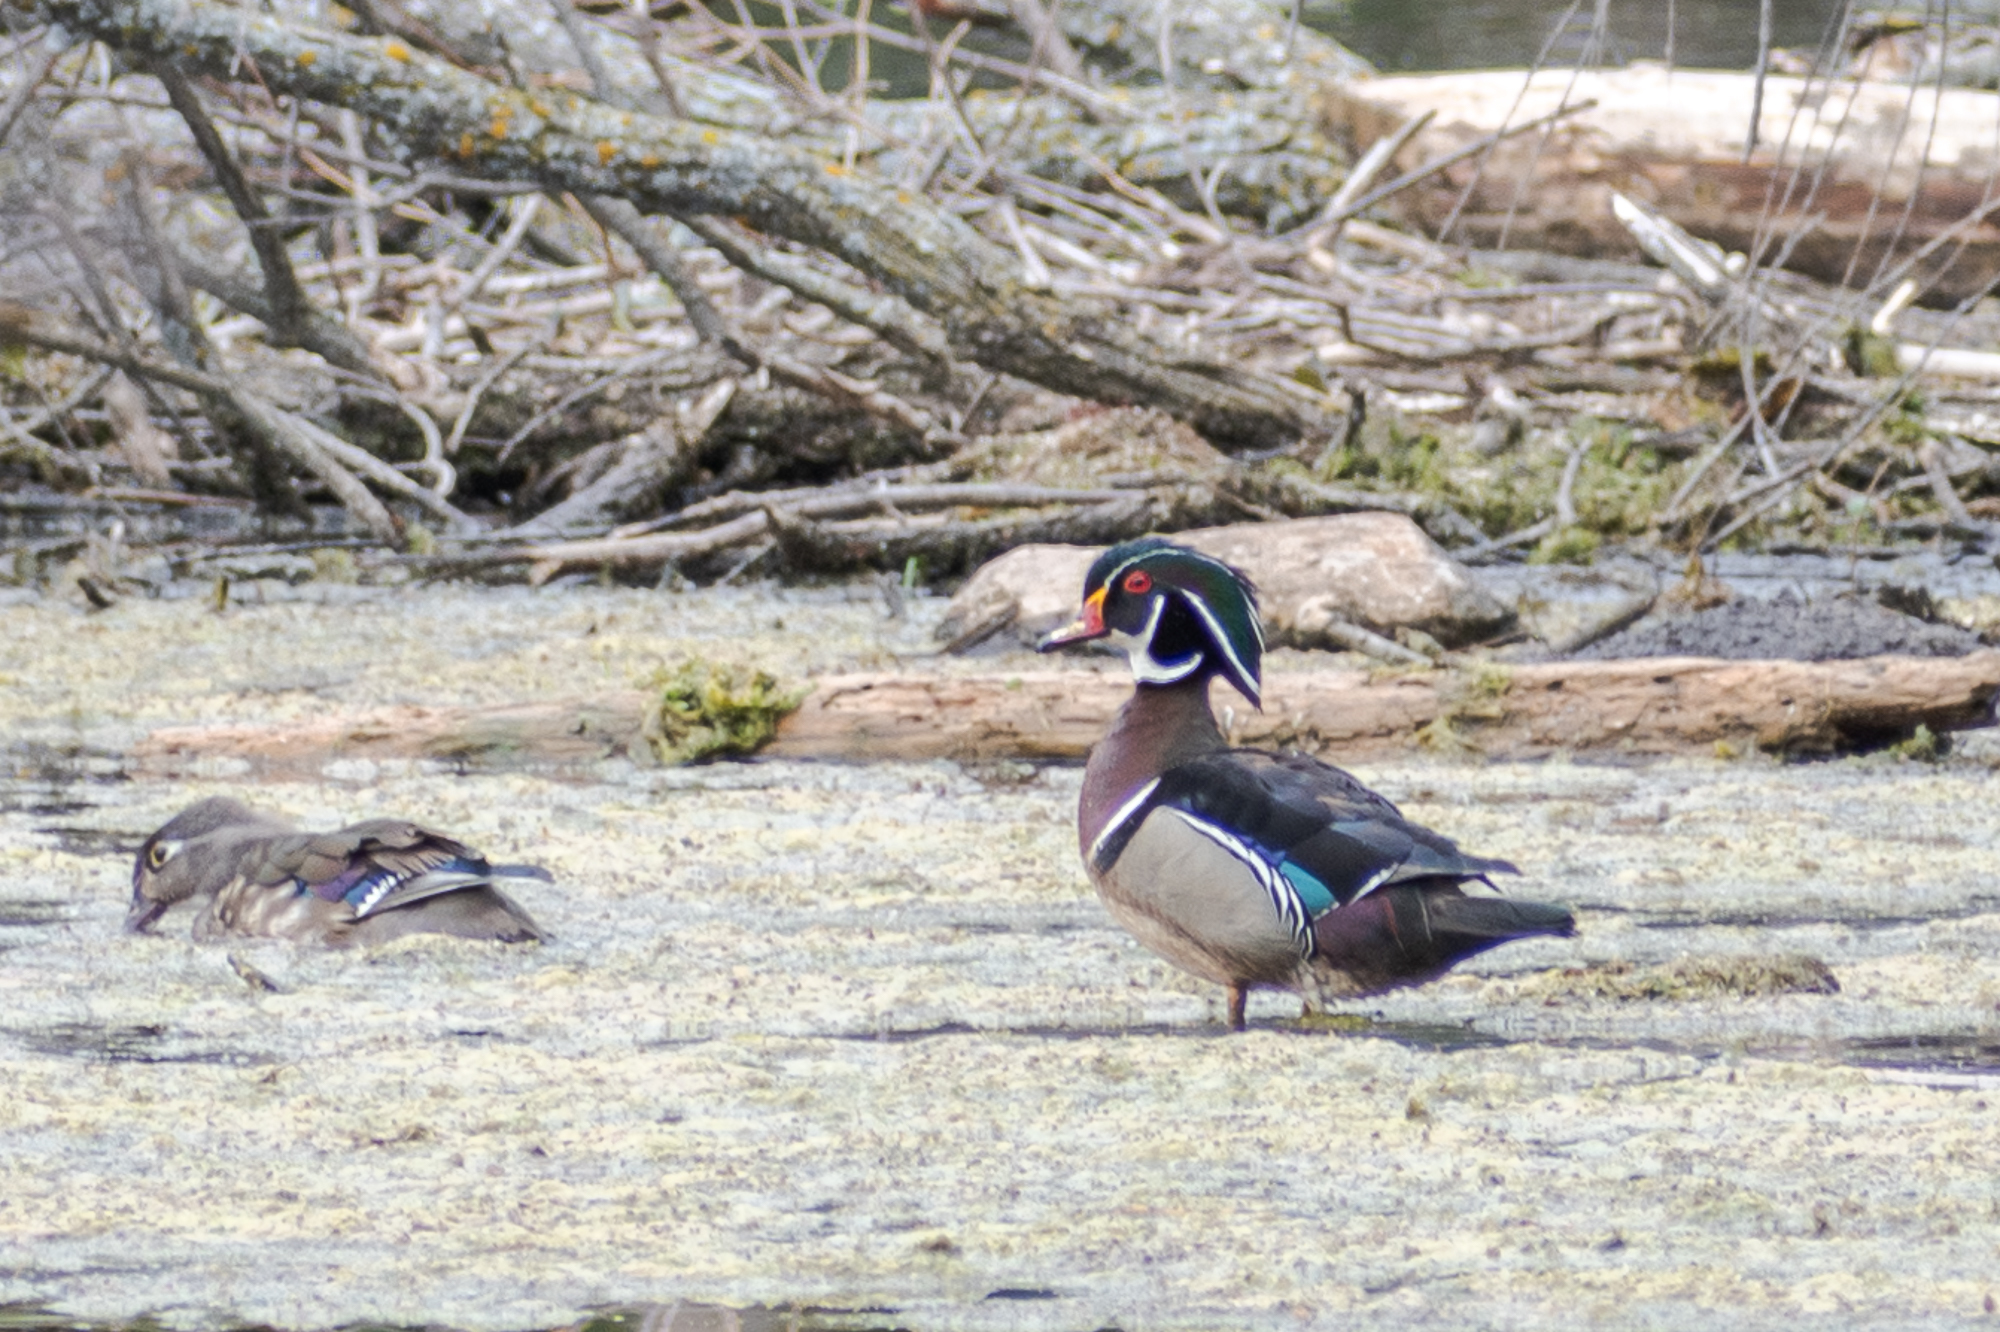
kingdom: Animalia
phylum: Chordata
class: Aves
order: Anseriformes
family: Anatidae
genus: Aix
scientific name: Aix sponsa
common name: Wood duck
